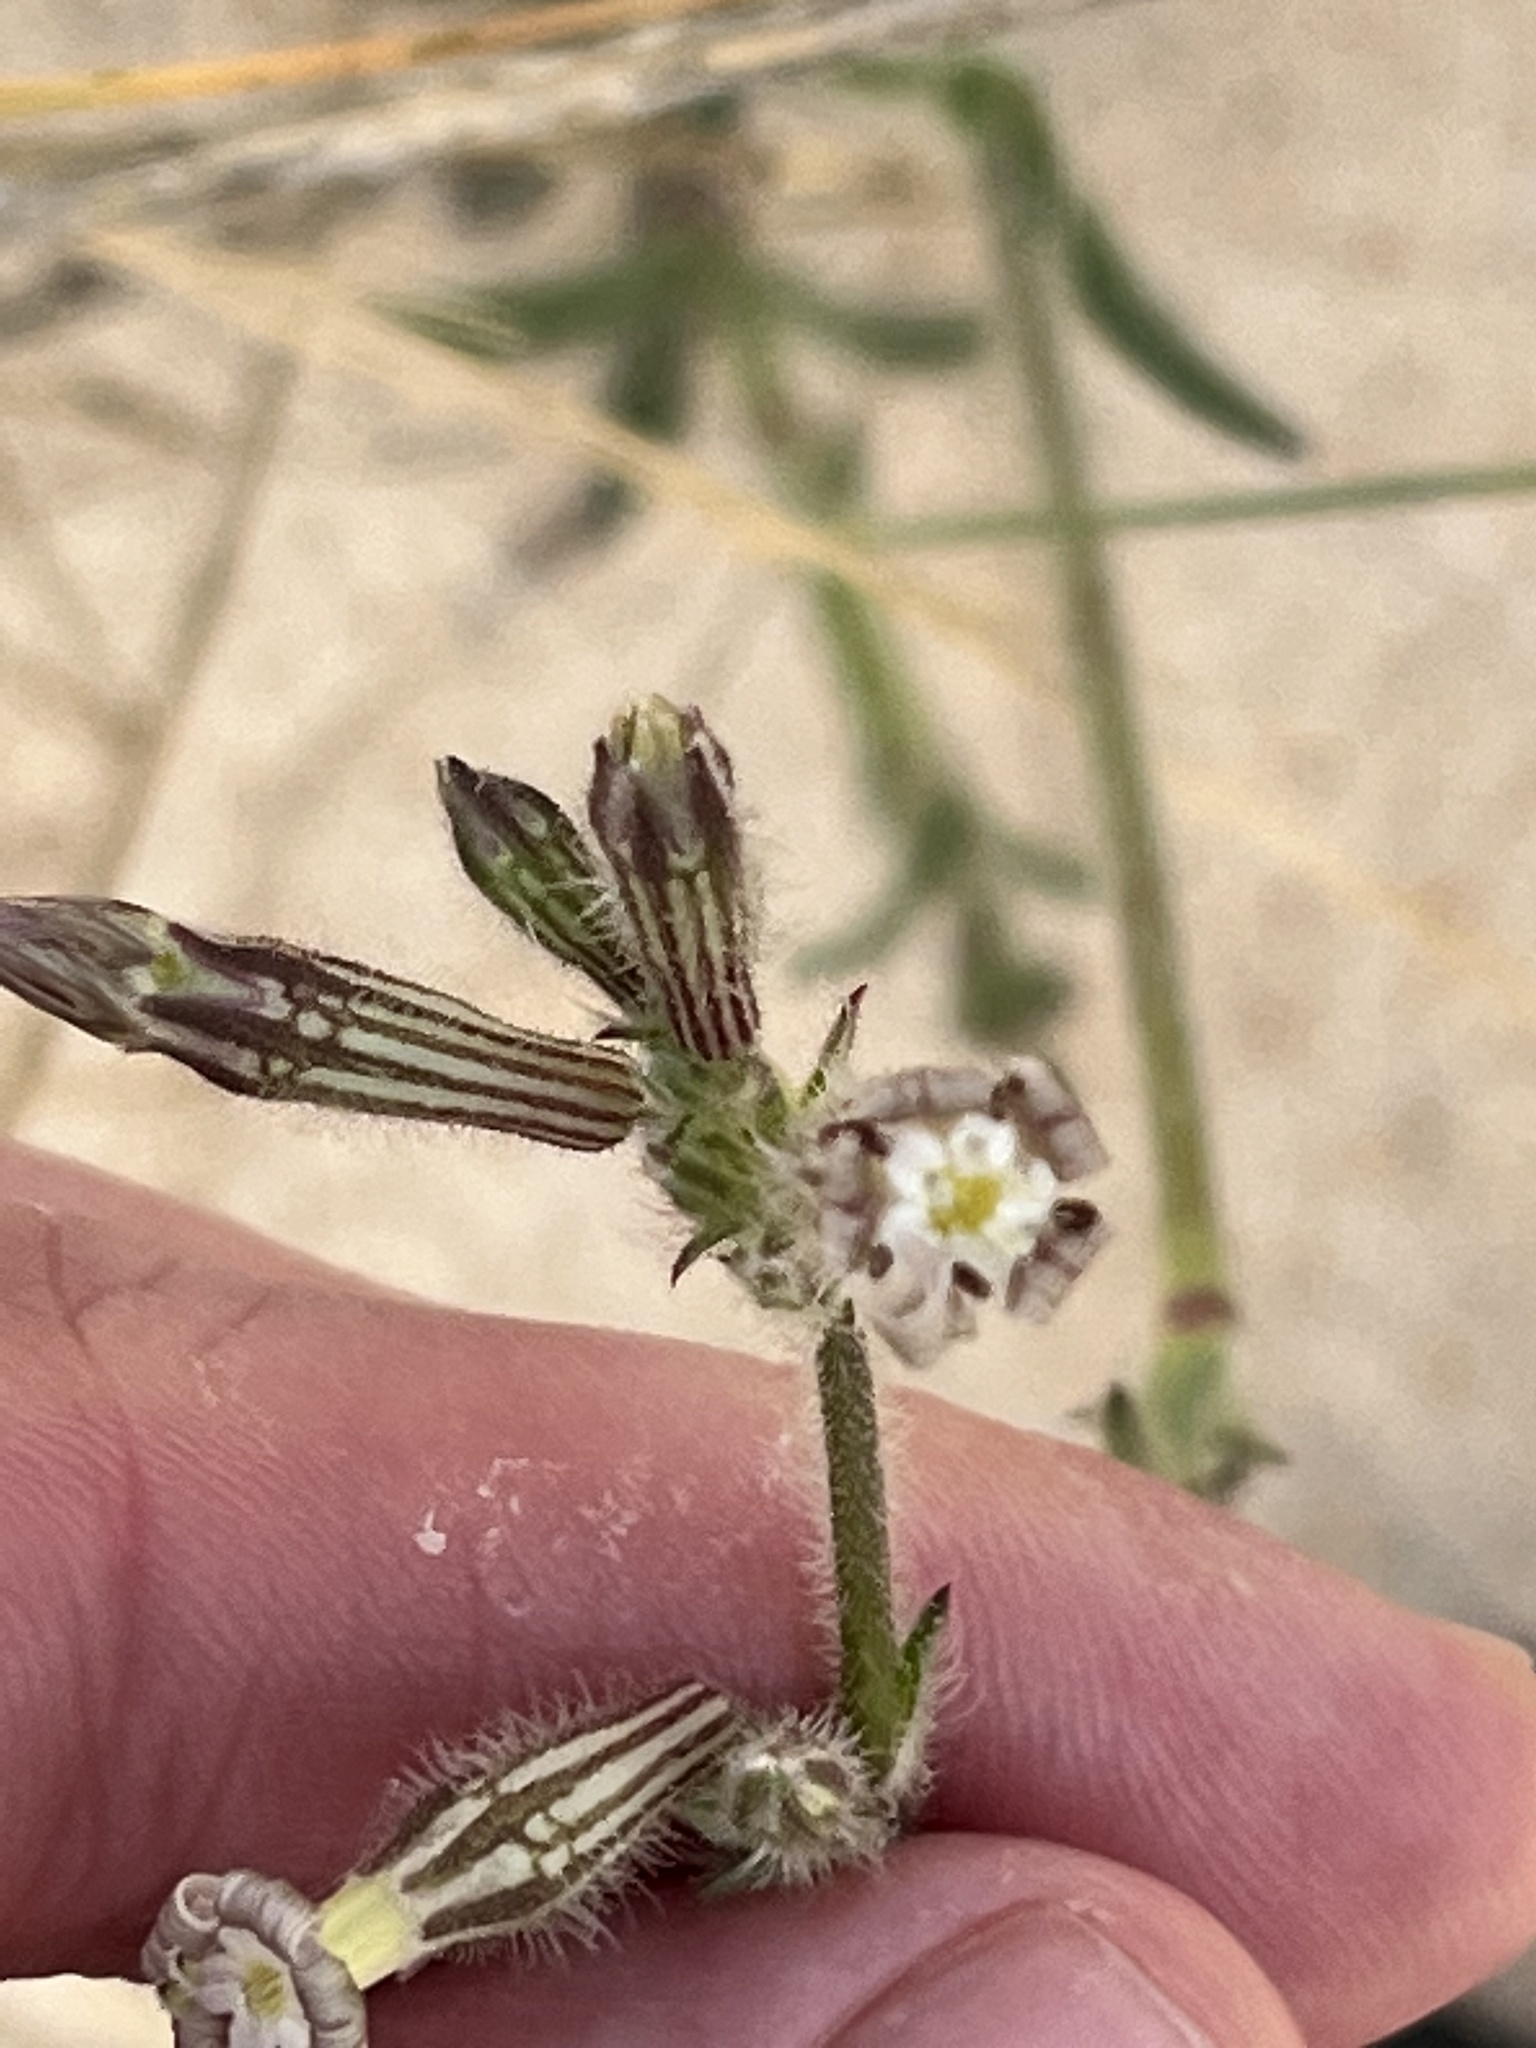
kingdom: Plantae
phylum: Tracheophyta
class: Magnoliopsida
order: Caryophyllales
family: Caryophyllaceae
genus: Silene
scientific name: Silene nicaeensis
